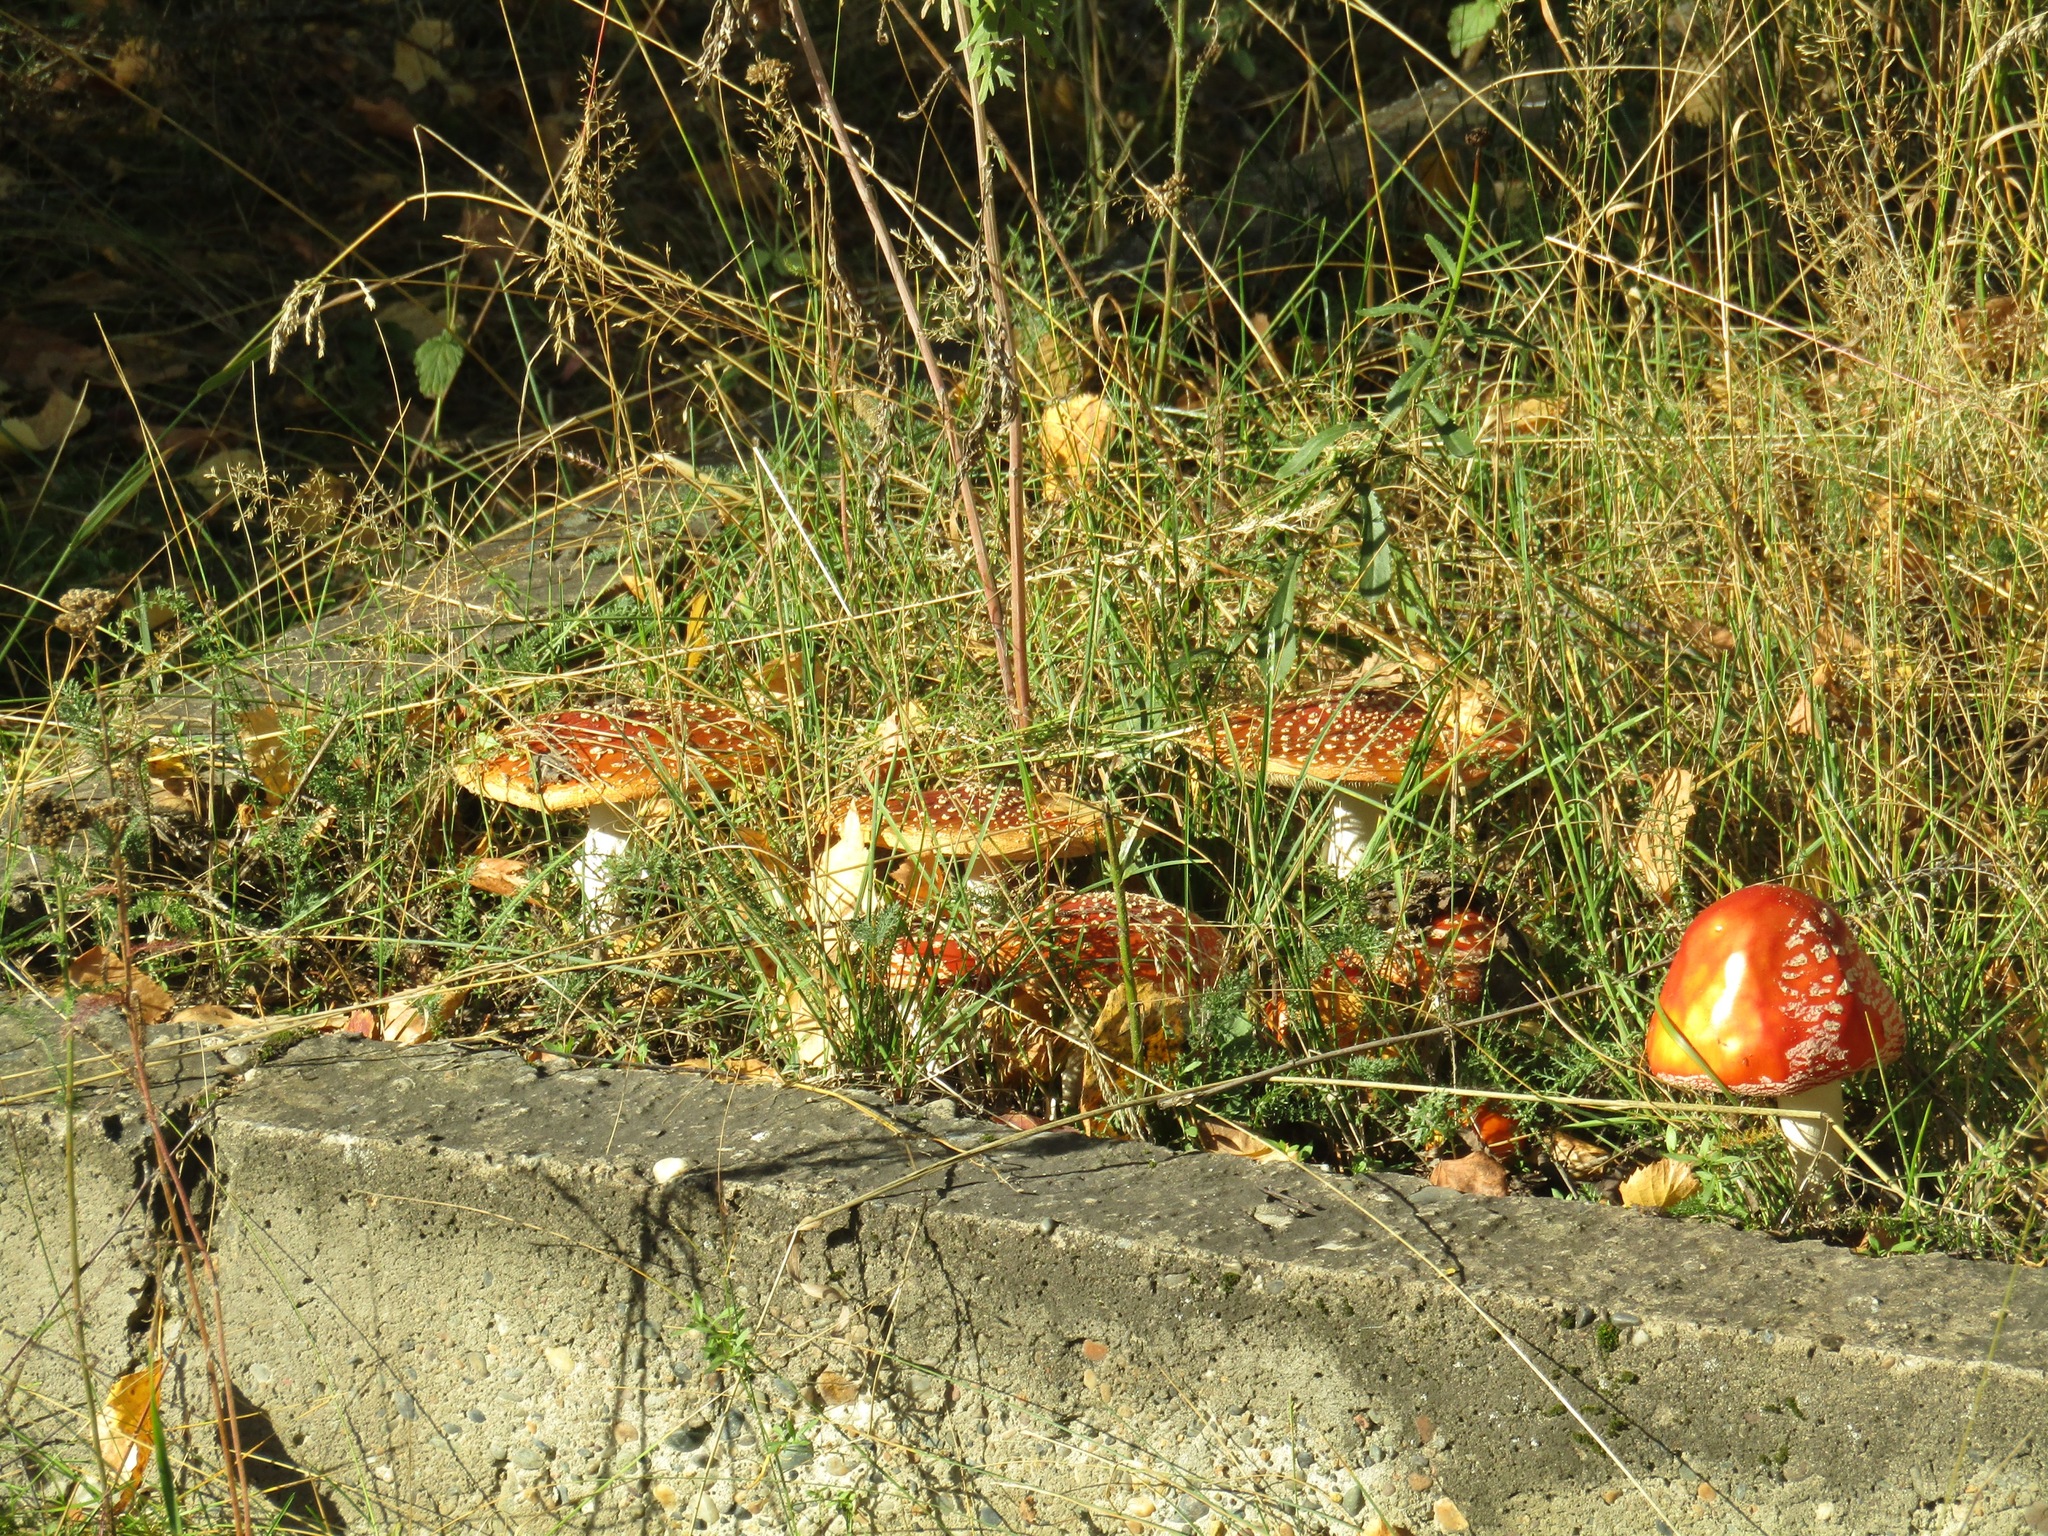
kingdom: Fungi
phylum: Basidiomycota
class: Agaricomycetes
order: Agaricales
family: Amanitaceae
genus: Amanita
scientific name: Amanita muscaria
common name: Fly agaric
